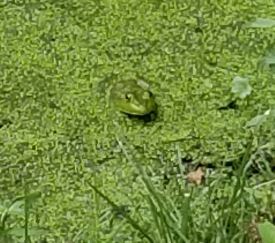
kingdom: Animalia
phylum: Chordata
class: Amphibia
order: Anura
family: Ranidae
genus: Lithobates
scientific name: Lithobates catesbeianus
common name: American bullfrog
